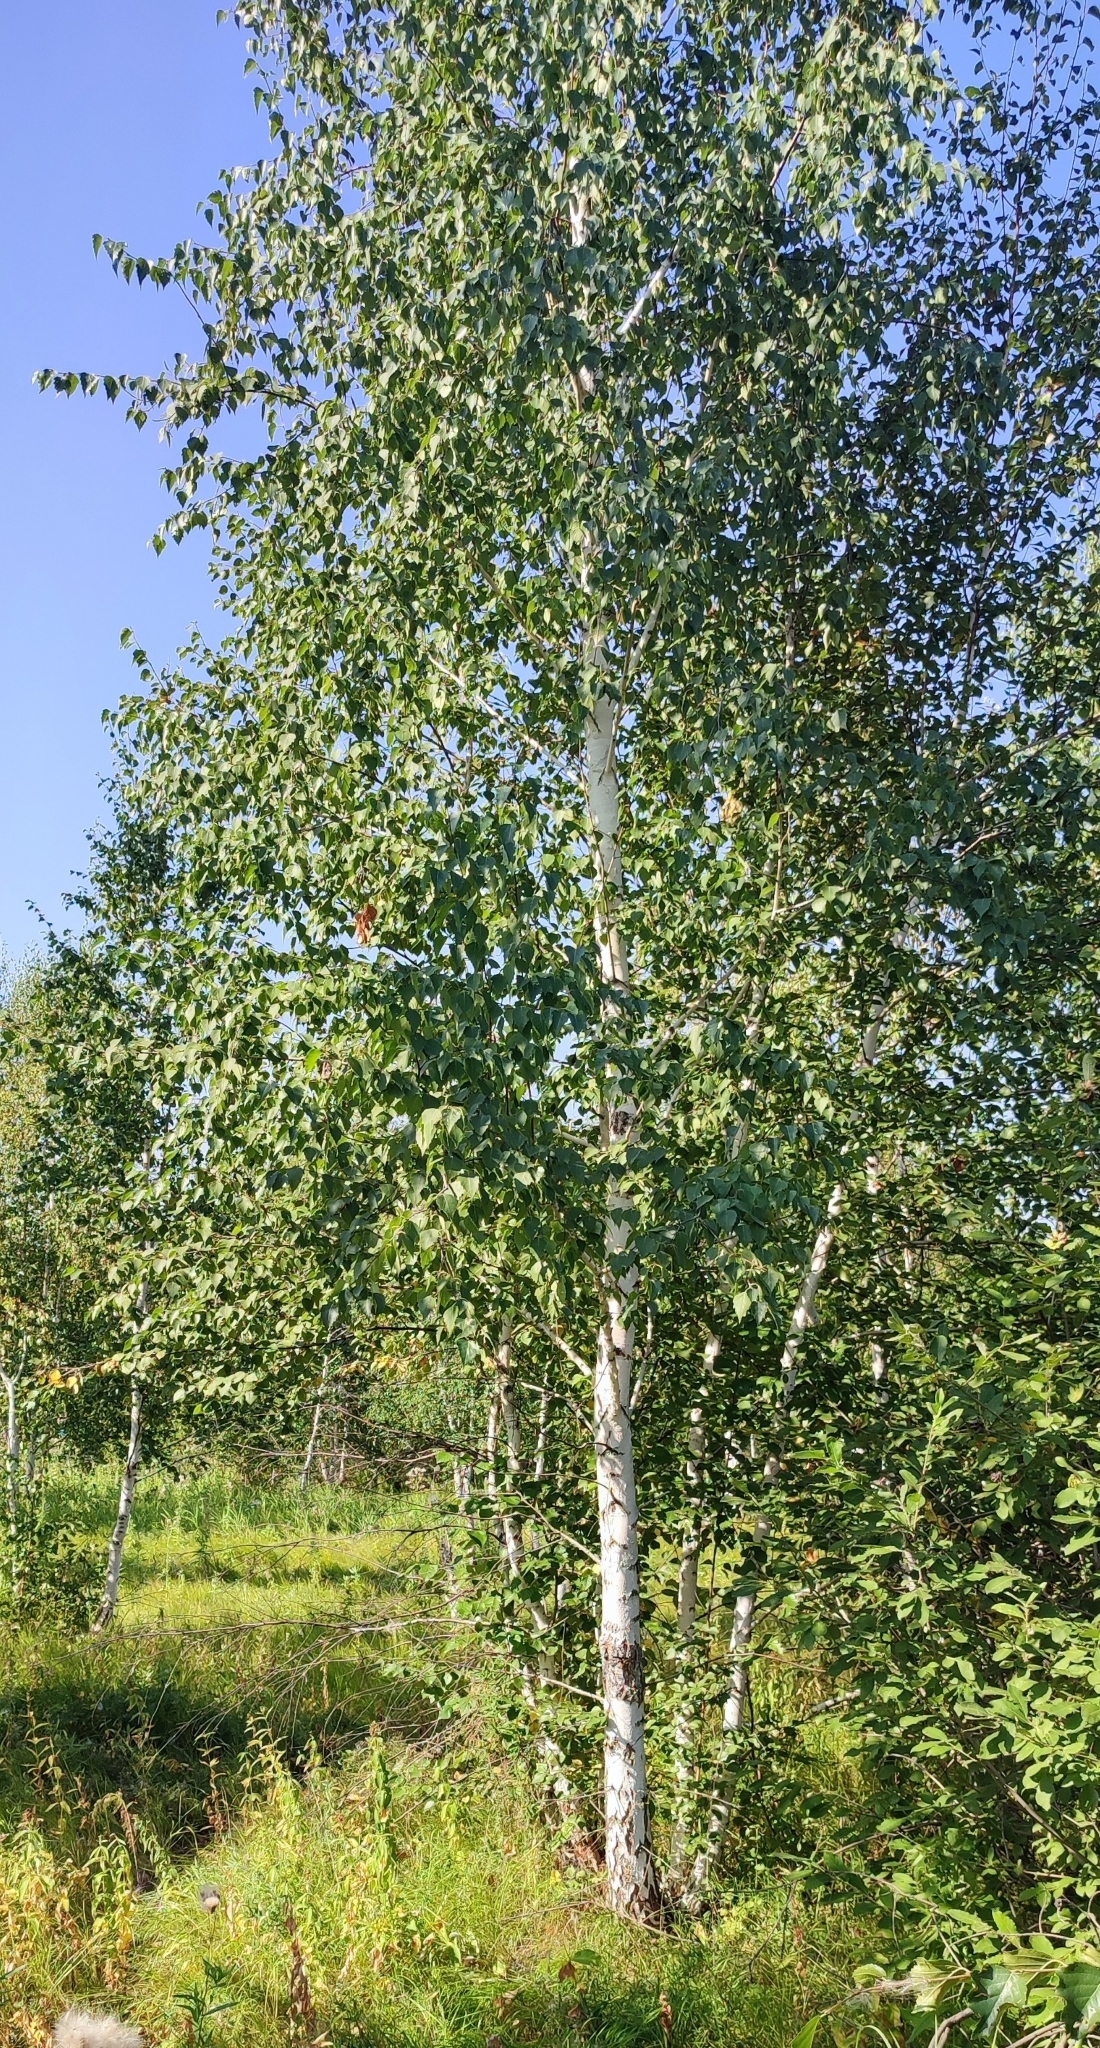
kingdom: Plantae
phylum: Tracheophyta
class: Magnoliopsida
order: Fagales
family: Betulaceae
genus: Betula
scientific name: Betula pendula
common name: Silver birch
